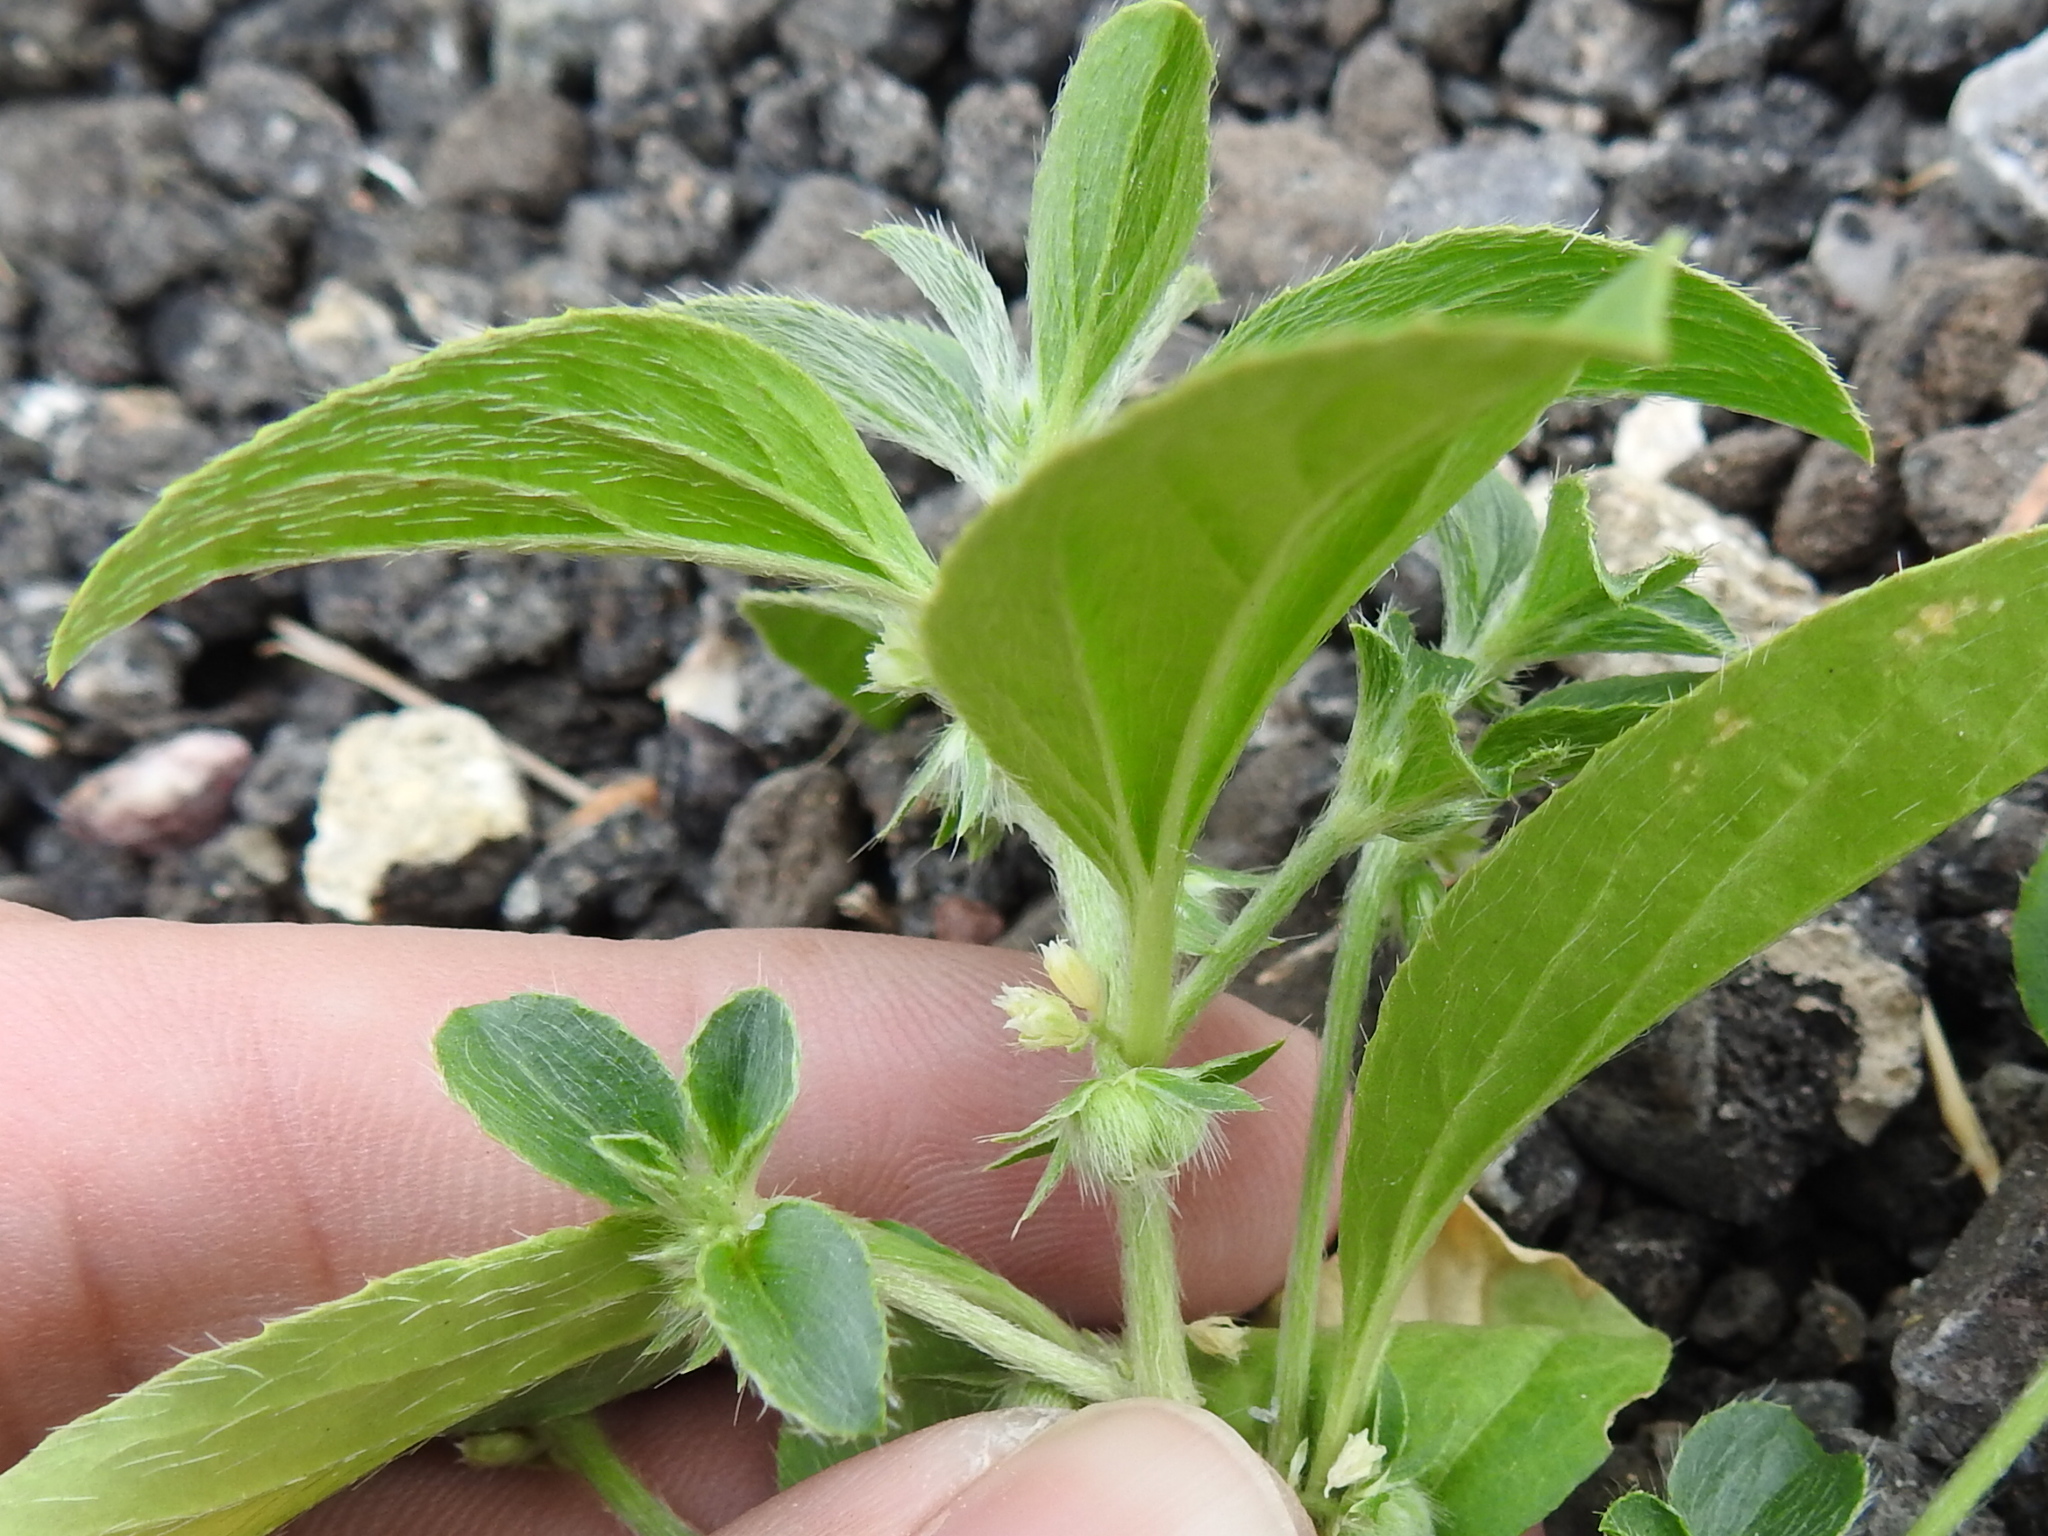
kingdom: Plantae
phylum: Tracheophyta
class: Magnoliopsida
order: Malpighiales
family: Euphorbiaceae
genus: Ditaxis
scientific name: Ditaxis serrata
